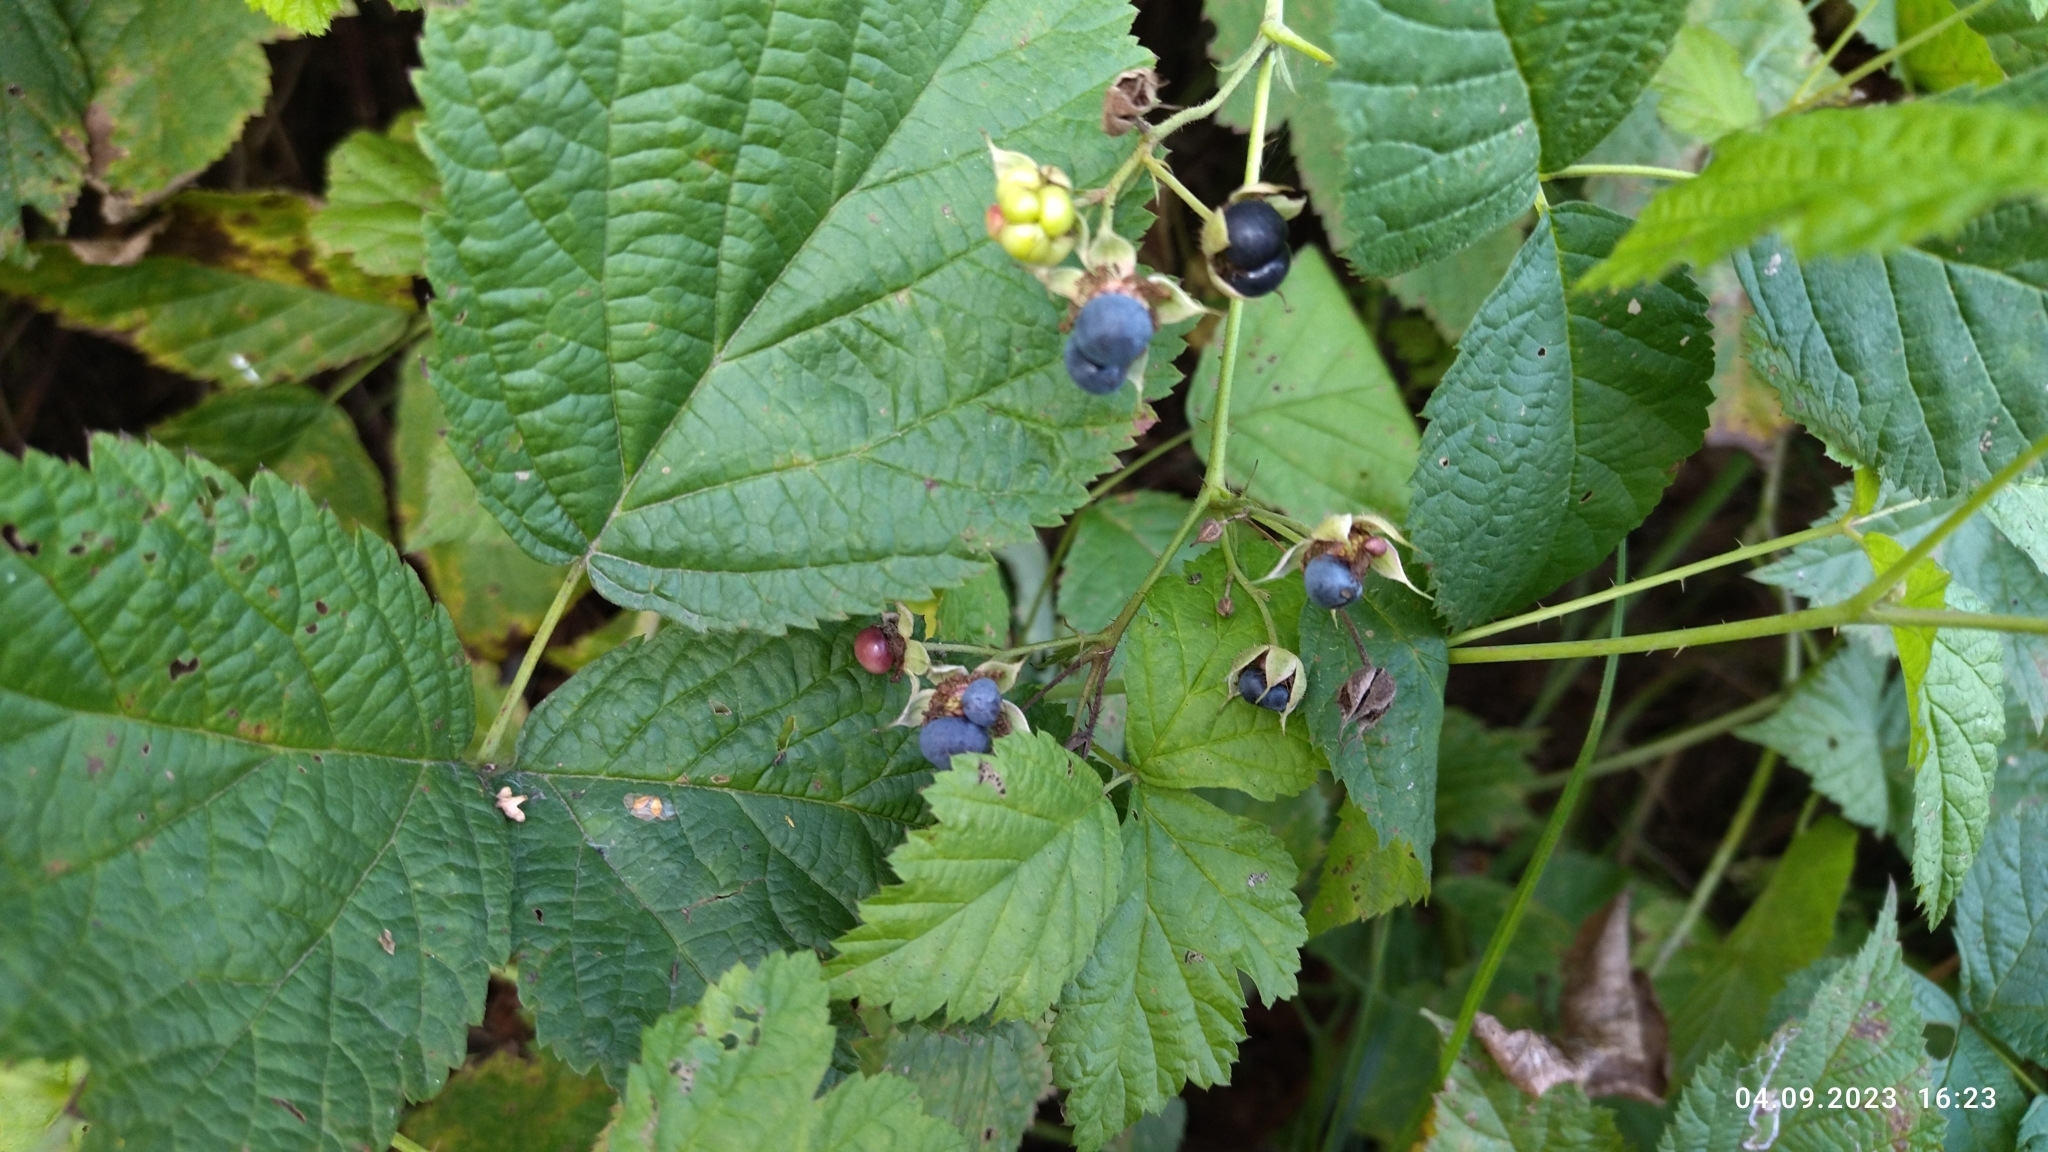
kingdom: Plantae
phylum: Tracheophyta
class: Magnoliopsida
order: Rosales
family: Rosaceae
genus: Rubus
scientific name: Rubus caesius
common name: Dewberry
